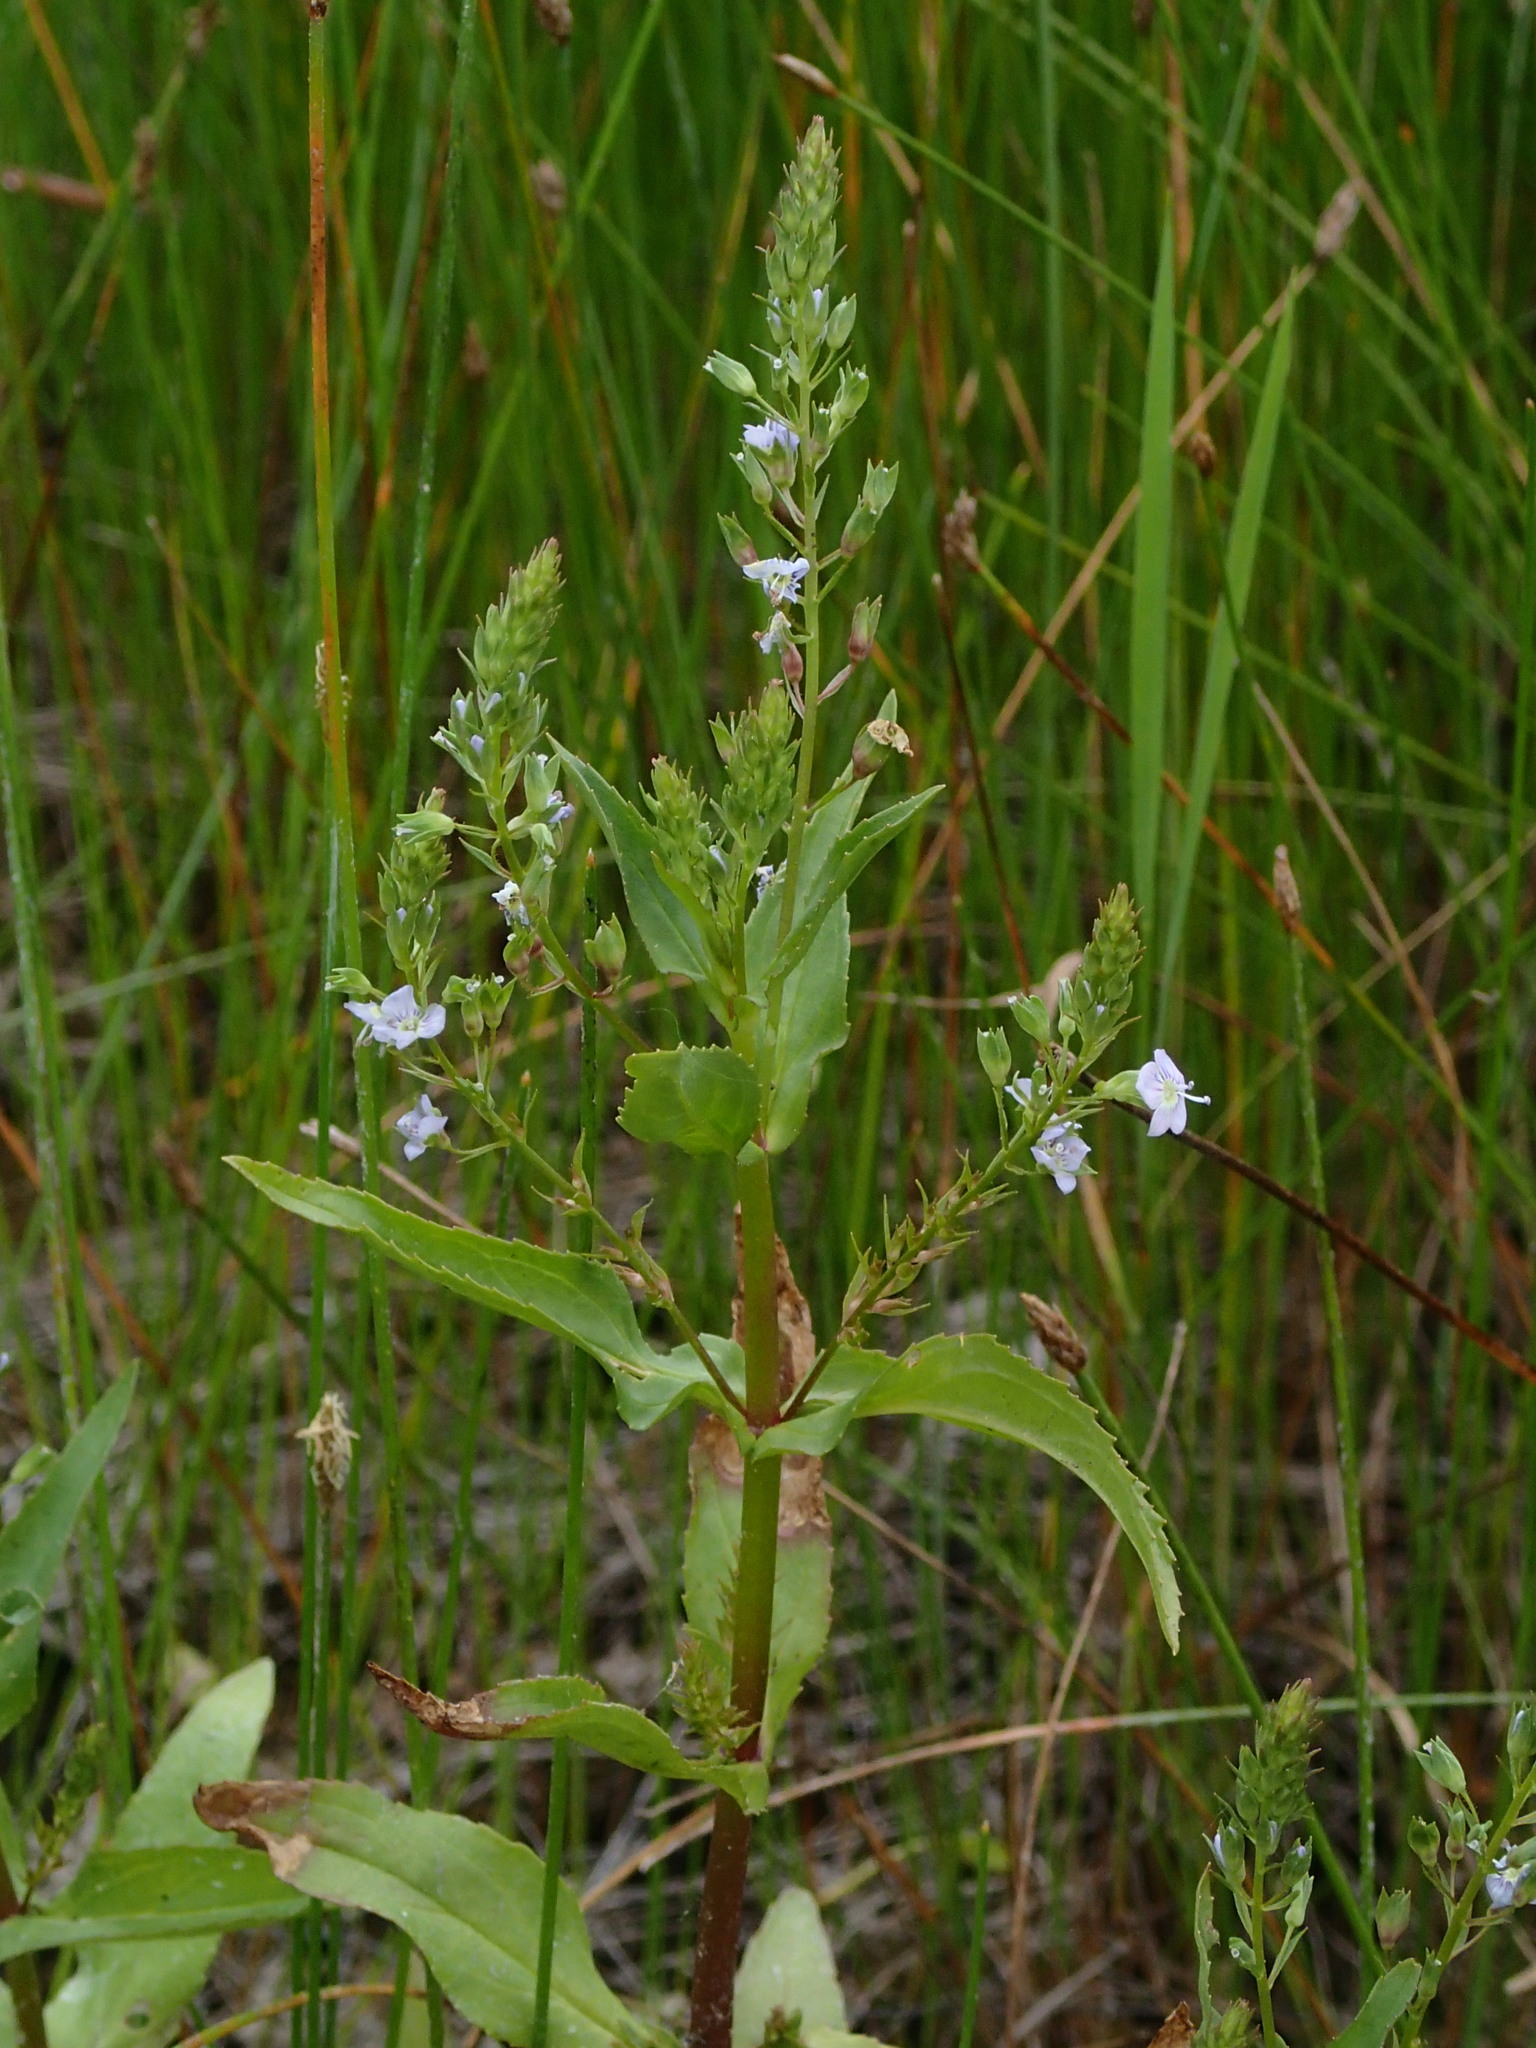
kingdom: Plantae
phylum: Tracheophyta
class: Magnoliopsida
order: Lamiales
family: Plantaginaceae
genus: Veronica
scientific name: Veronica anagallis-aquatica
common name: Water speedwell
